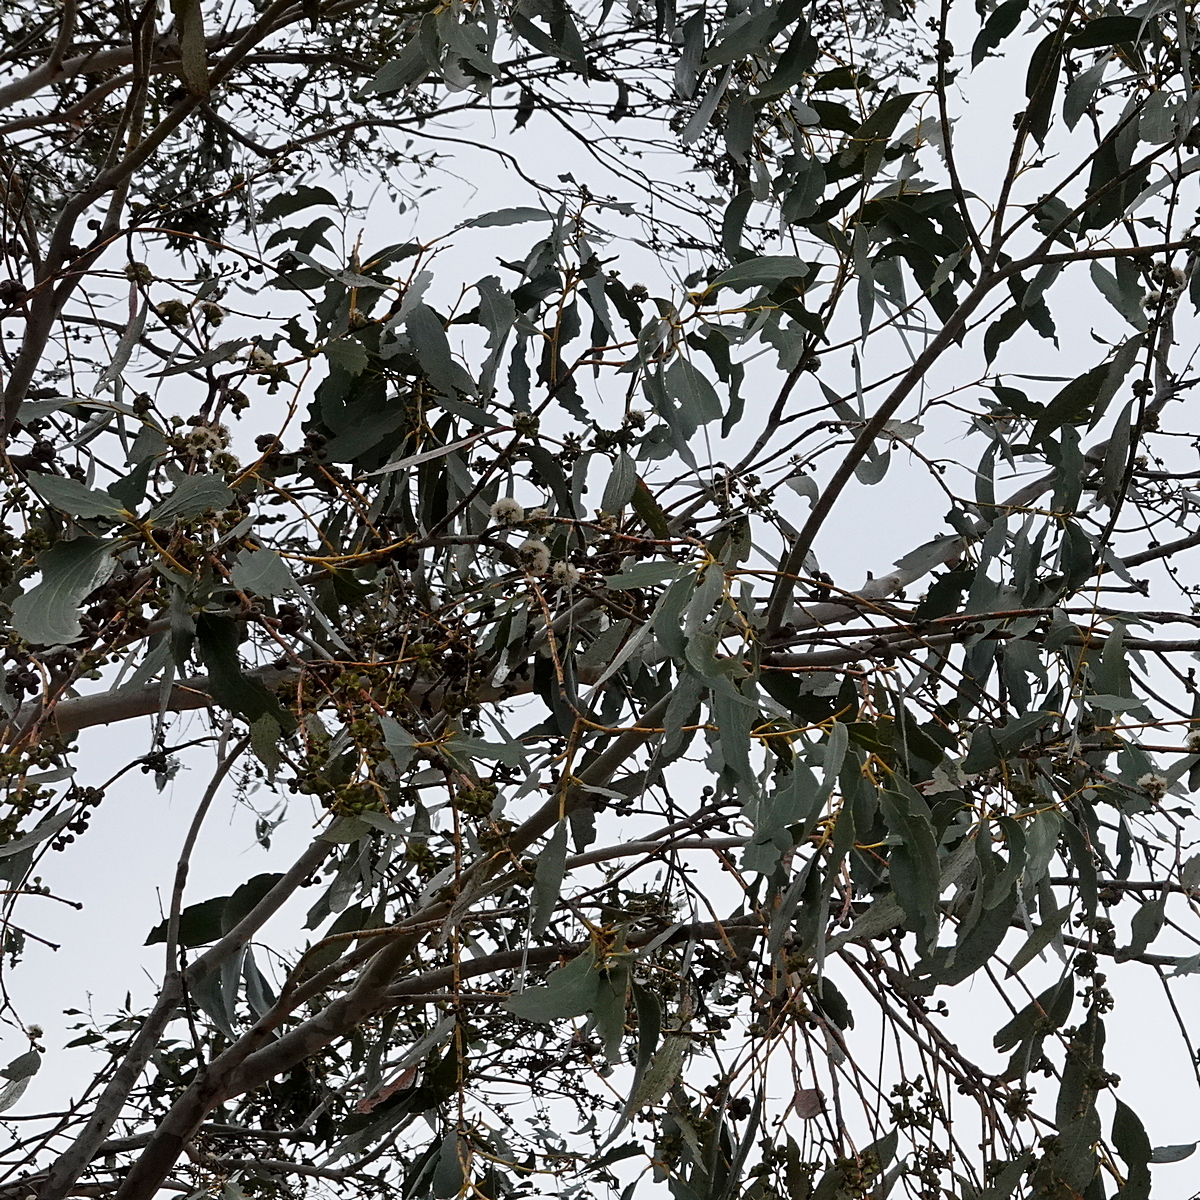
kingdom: Plantae
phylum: Tracheophyta
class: Magnoliopsida
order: Myrtales
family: Myrtaceae
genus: Eucalyptus
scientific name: Eucalyptus pauciflora
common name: Snow gum
